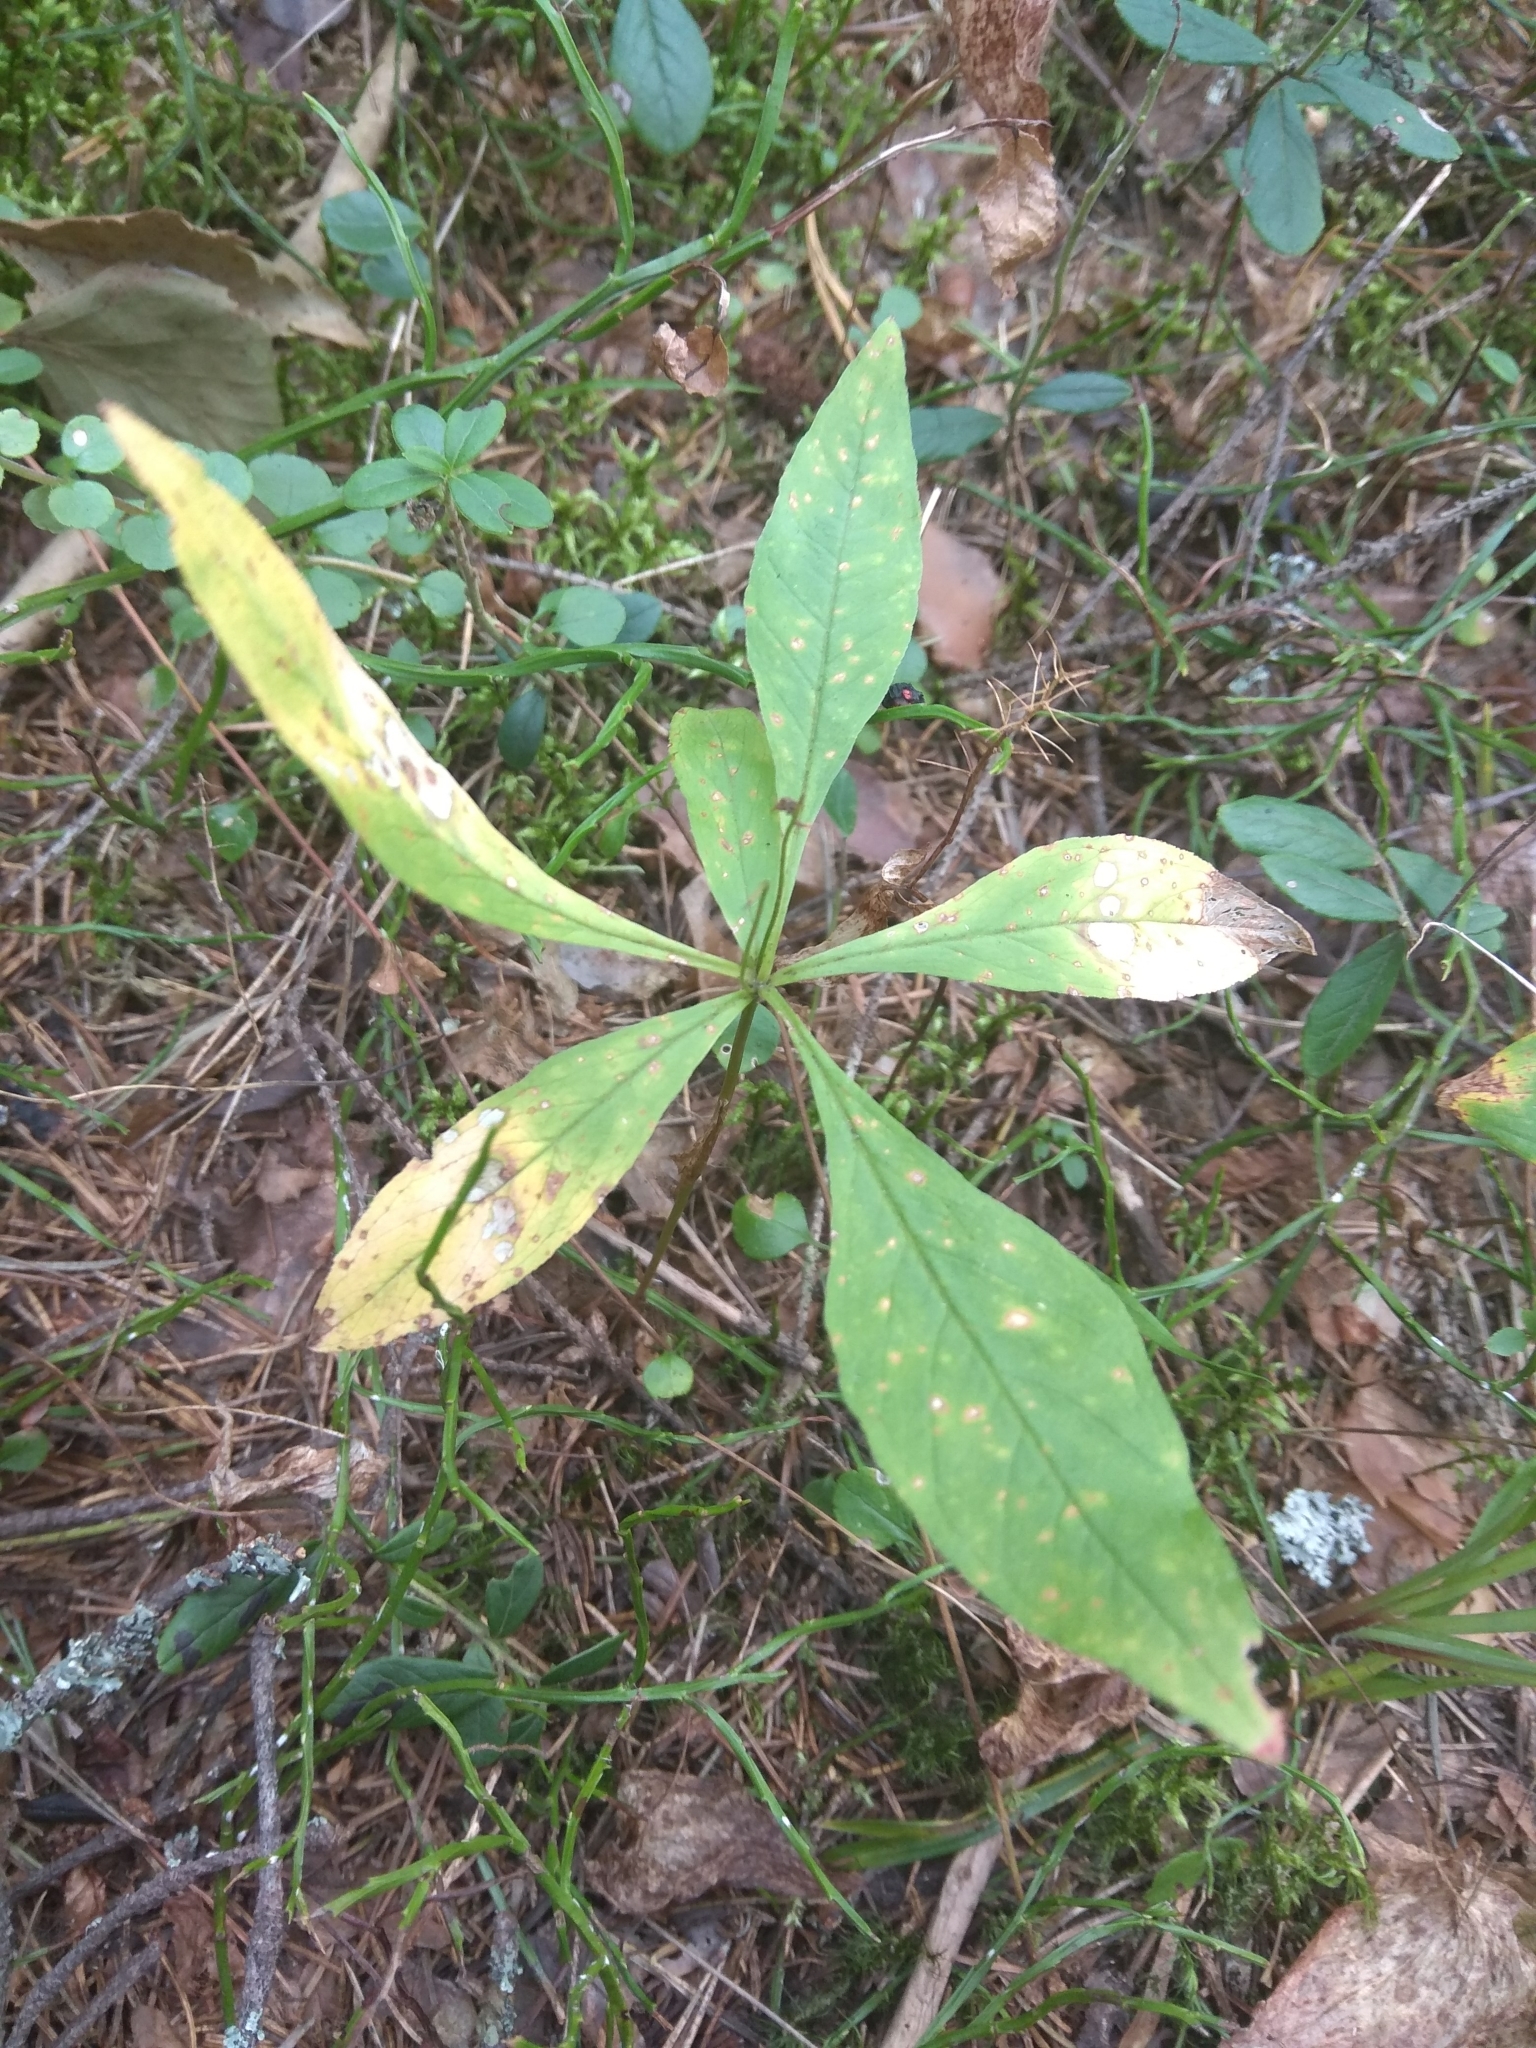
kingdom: Plantae
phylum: Tracheophyta
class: Magnoliopsida
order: Ericales
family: Primulaceae
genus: Lysimachia
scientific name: Lysimachia europaea
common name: Arctic starflower
